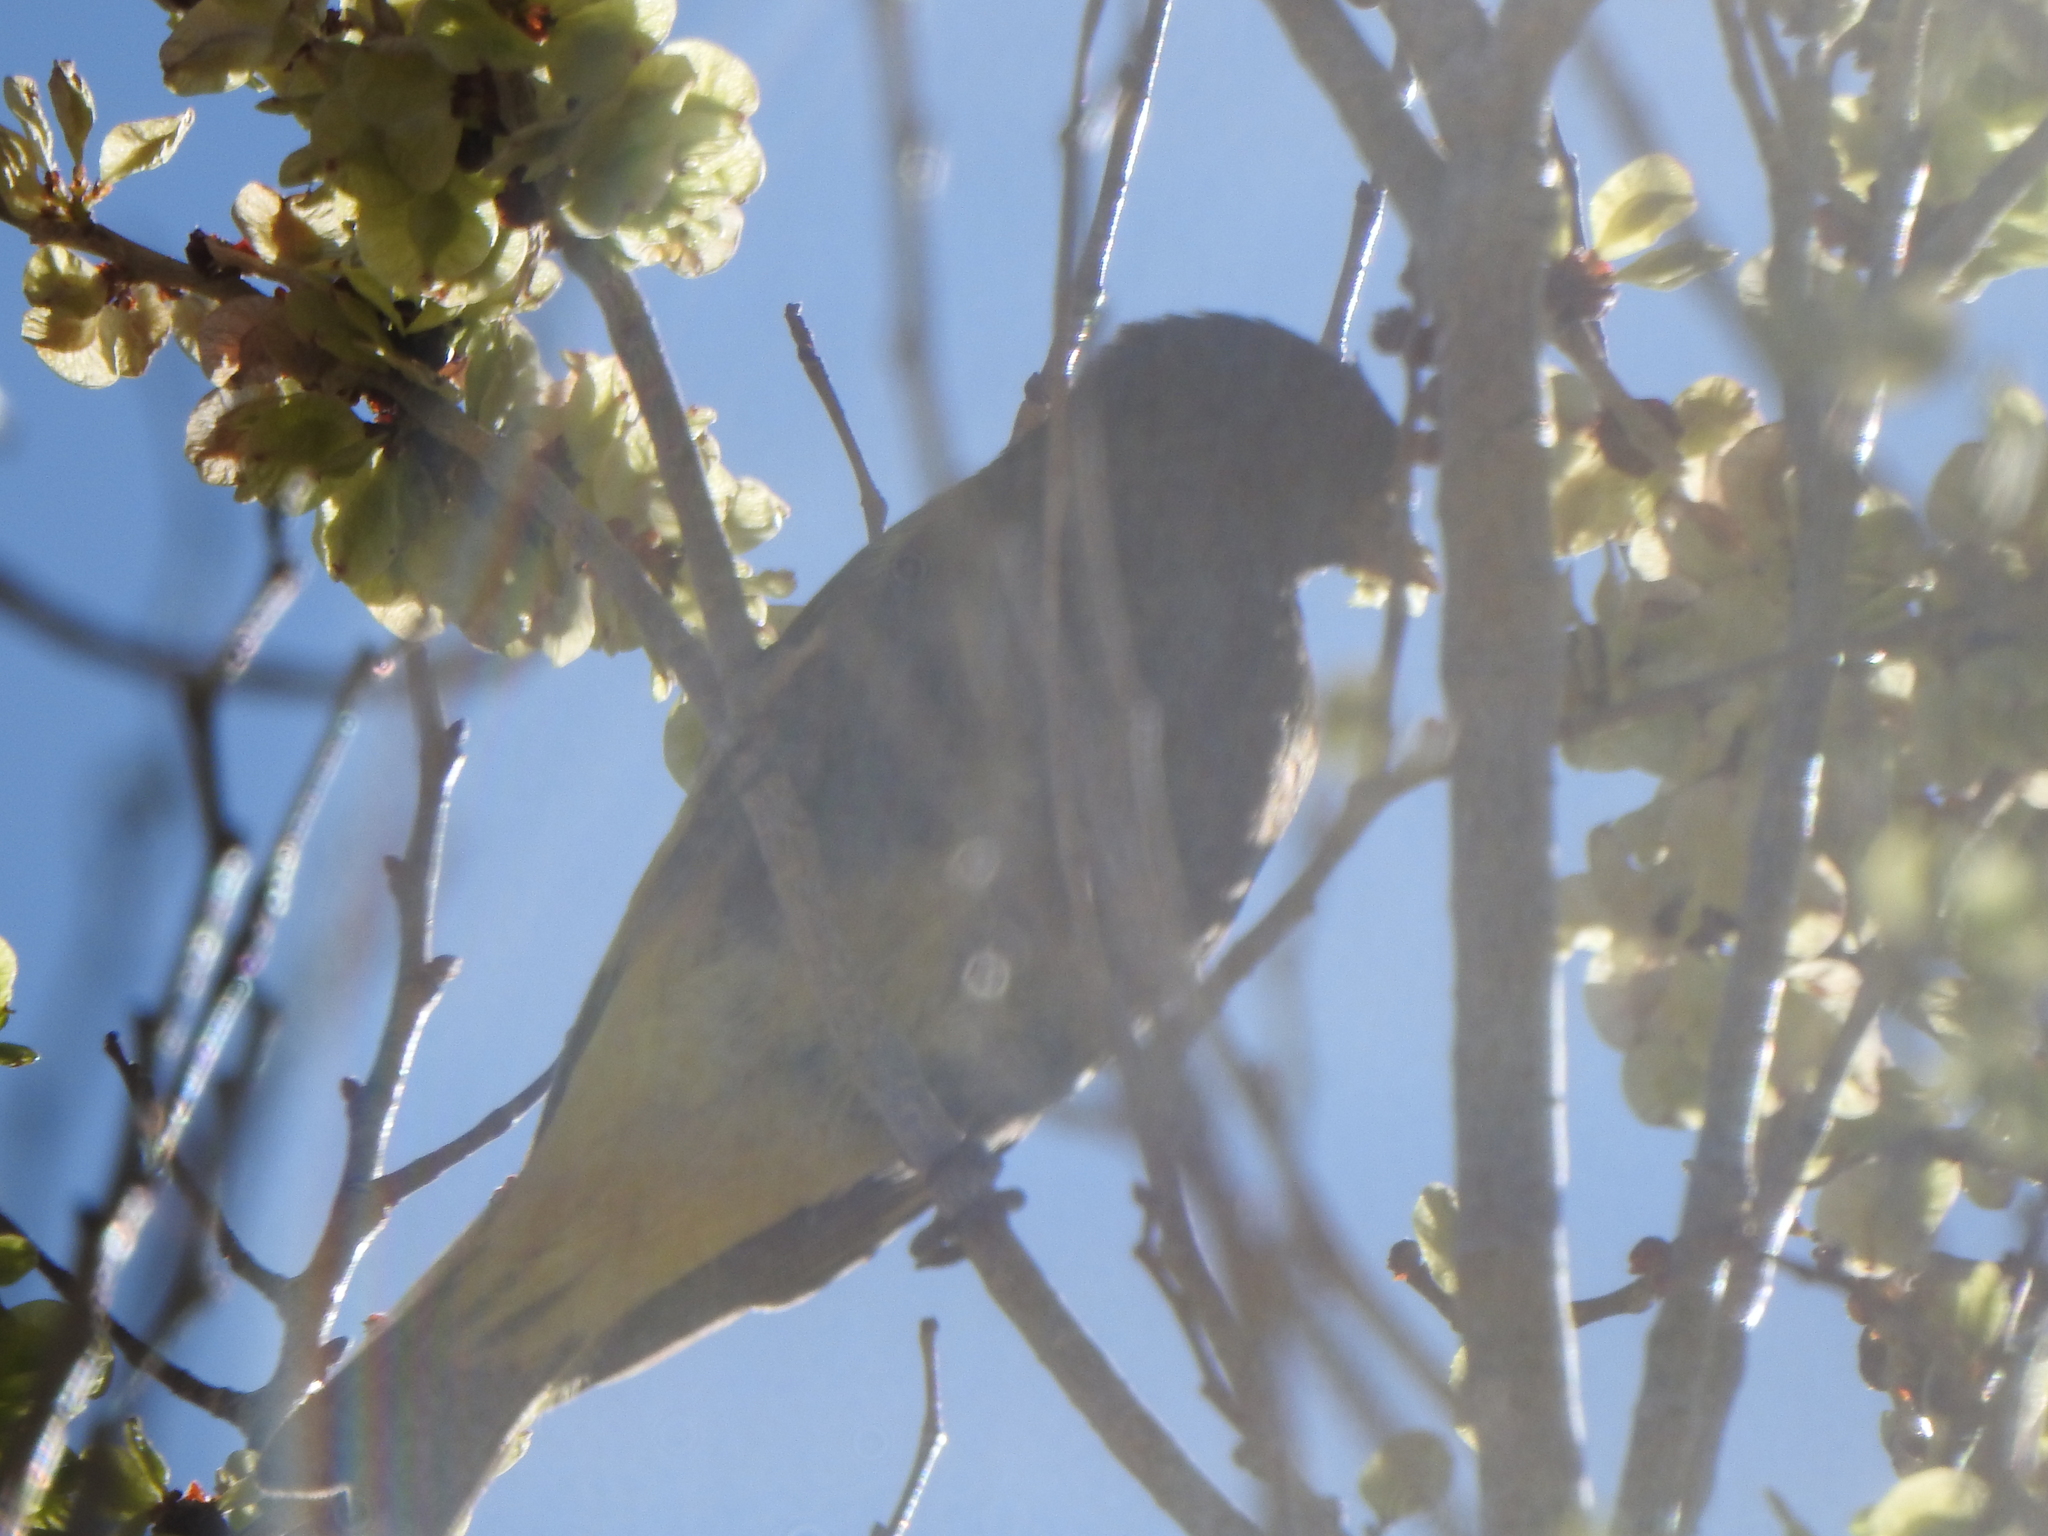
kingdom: Animalia
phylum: Chordata
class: Aves
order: Passeriformes
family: Fringillidae
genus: Spinus
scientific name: Spinus atratus
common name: Black siskin
